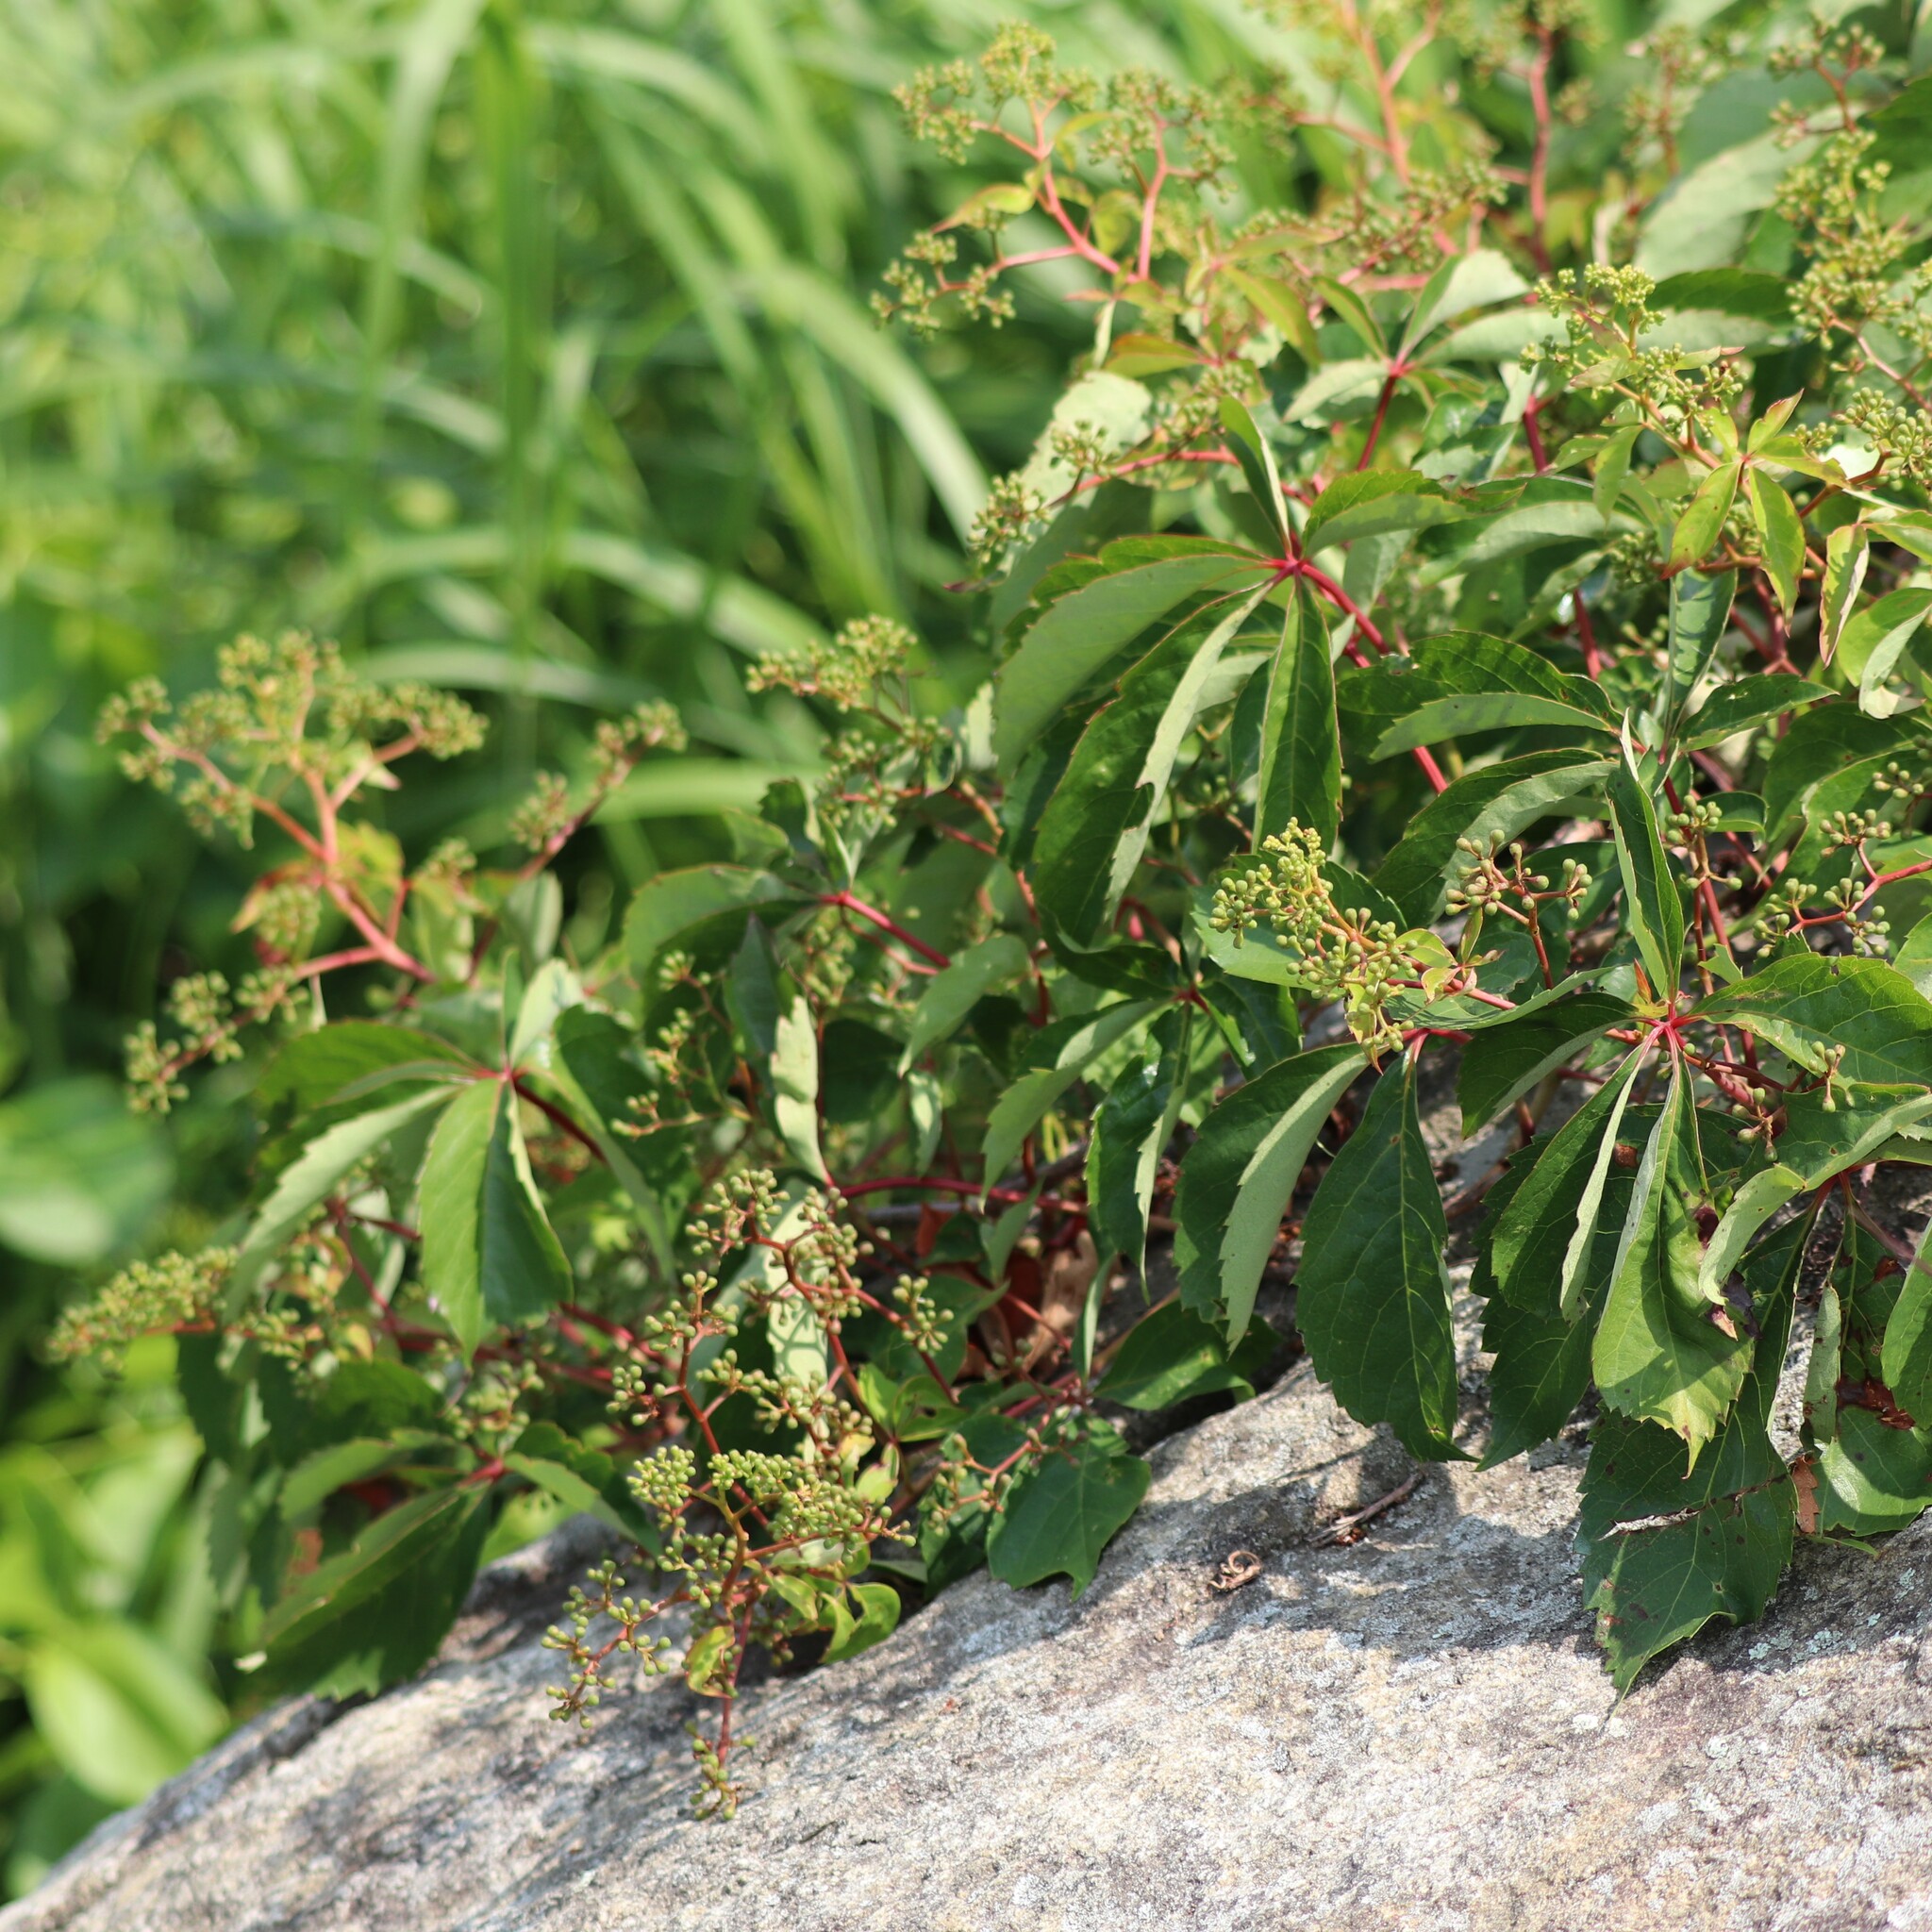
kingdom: Plantae
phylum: Tracheophyta
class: Magnoliopsida
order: Vitales
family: Vitaceae
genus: Parthenocissus
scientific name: Parthenocissus quinquefolia
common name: Virginia-creeper
